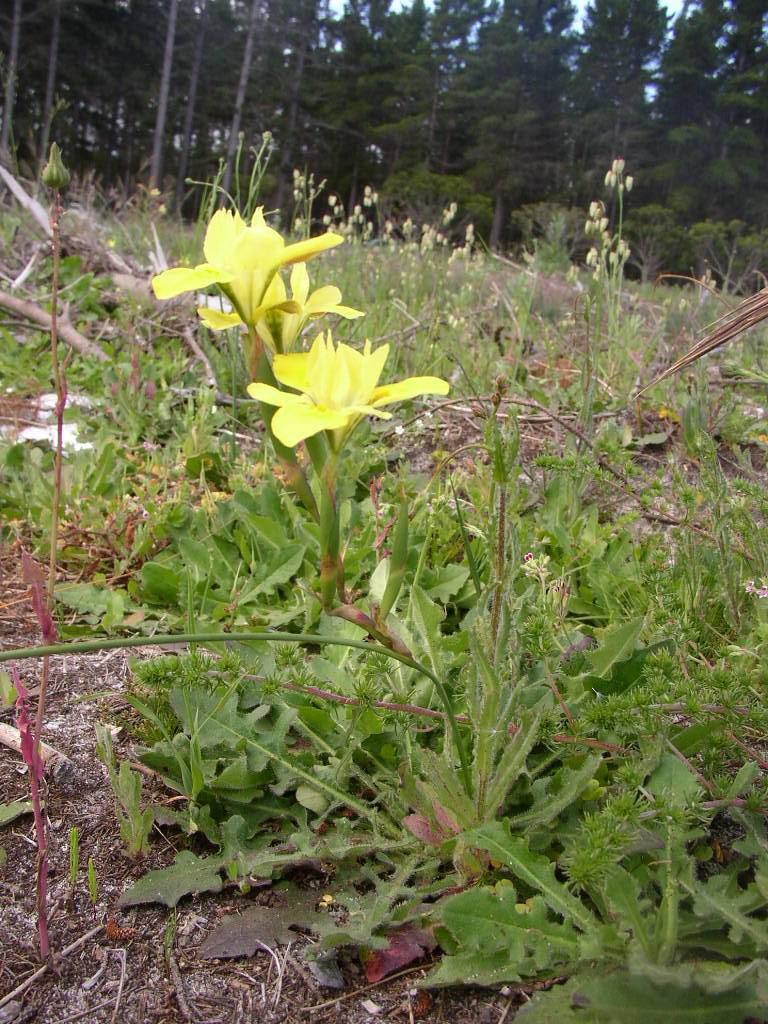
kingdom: Plantae
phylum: Tracheophyta
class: Liliopsida
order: Asparagales
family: Iridaceae
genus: Moraea
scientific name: Moraea fugax
